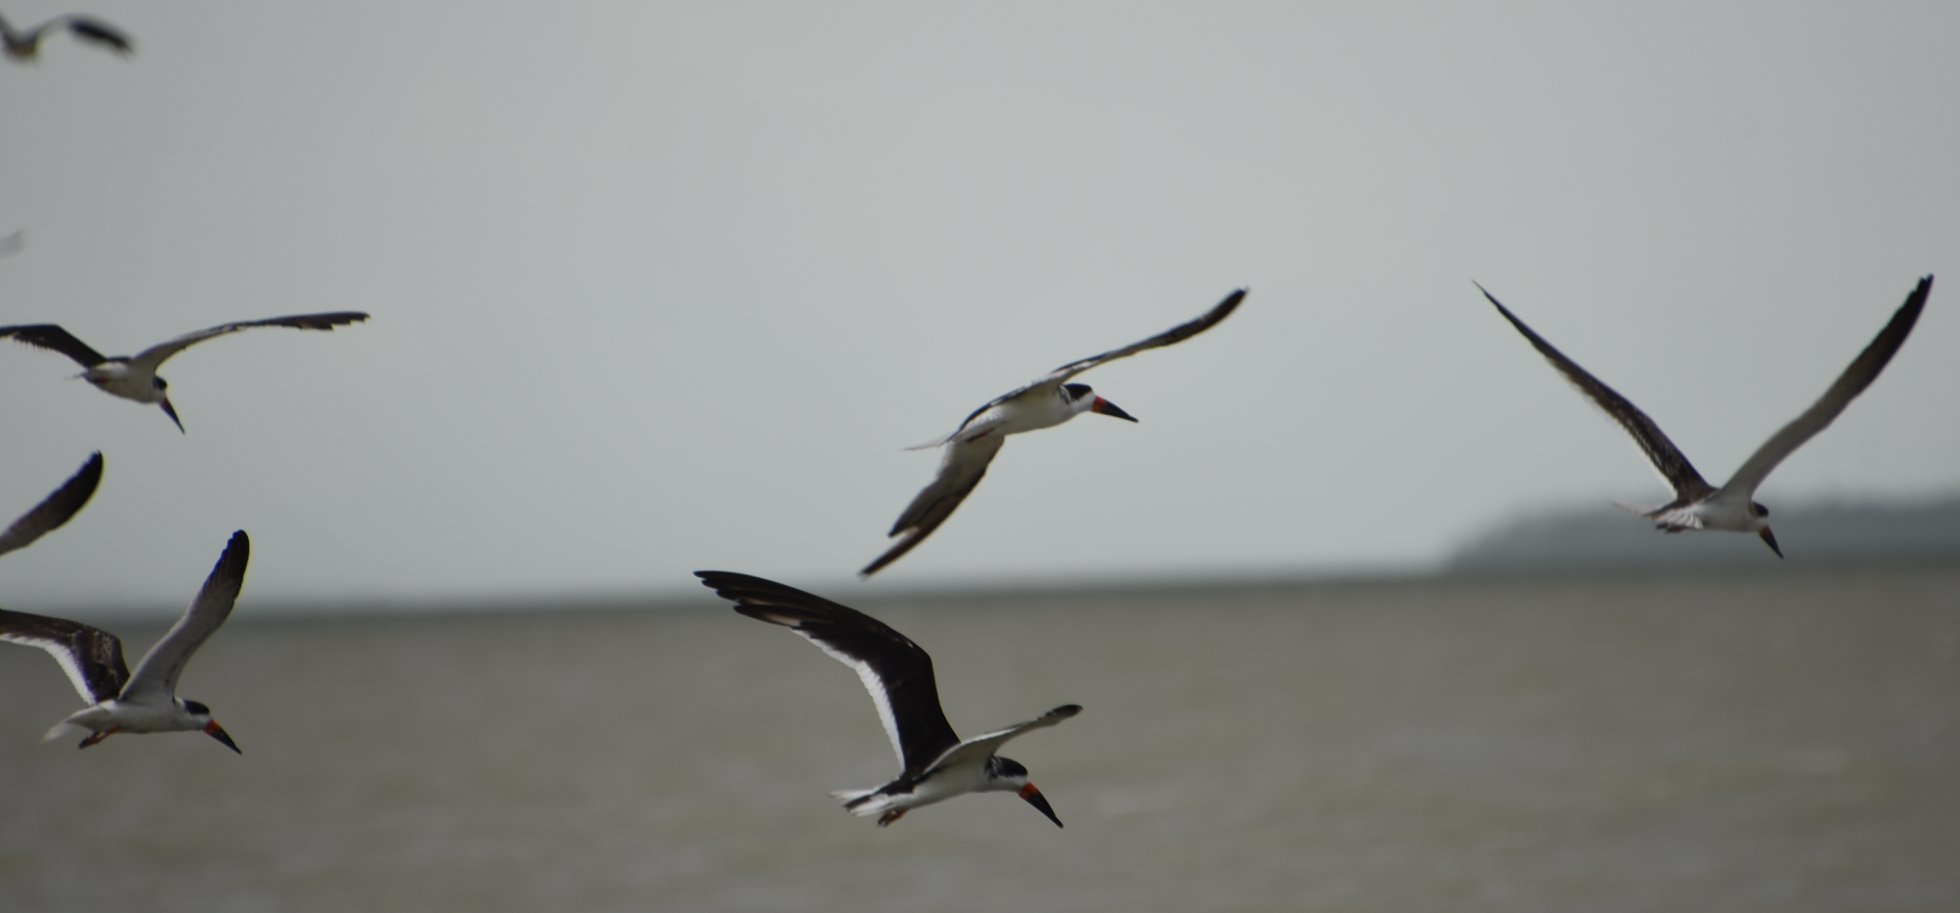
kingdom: Animalia
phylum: Chordata
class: Aves
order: Charadriiformes
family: Laridae
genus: Rynchops
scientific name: Rynchops niger
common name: Black skimmer
